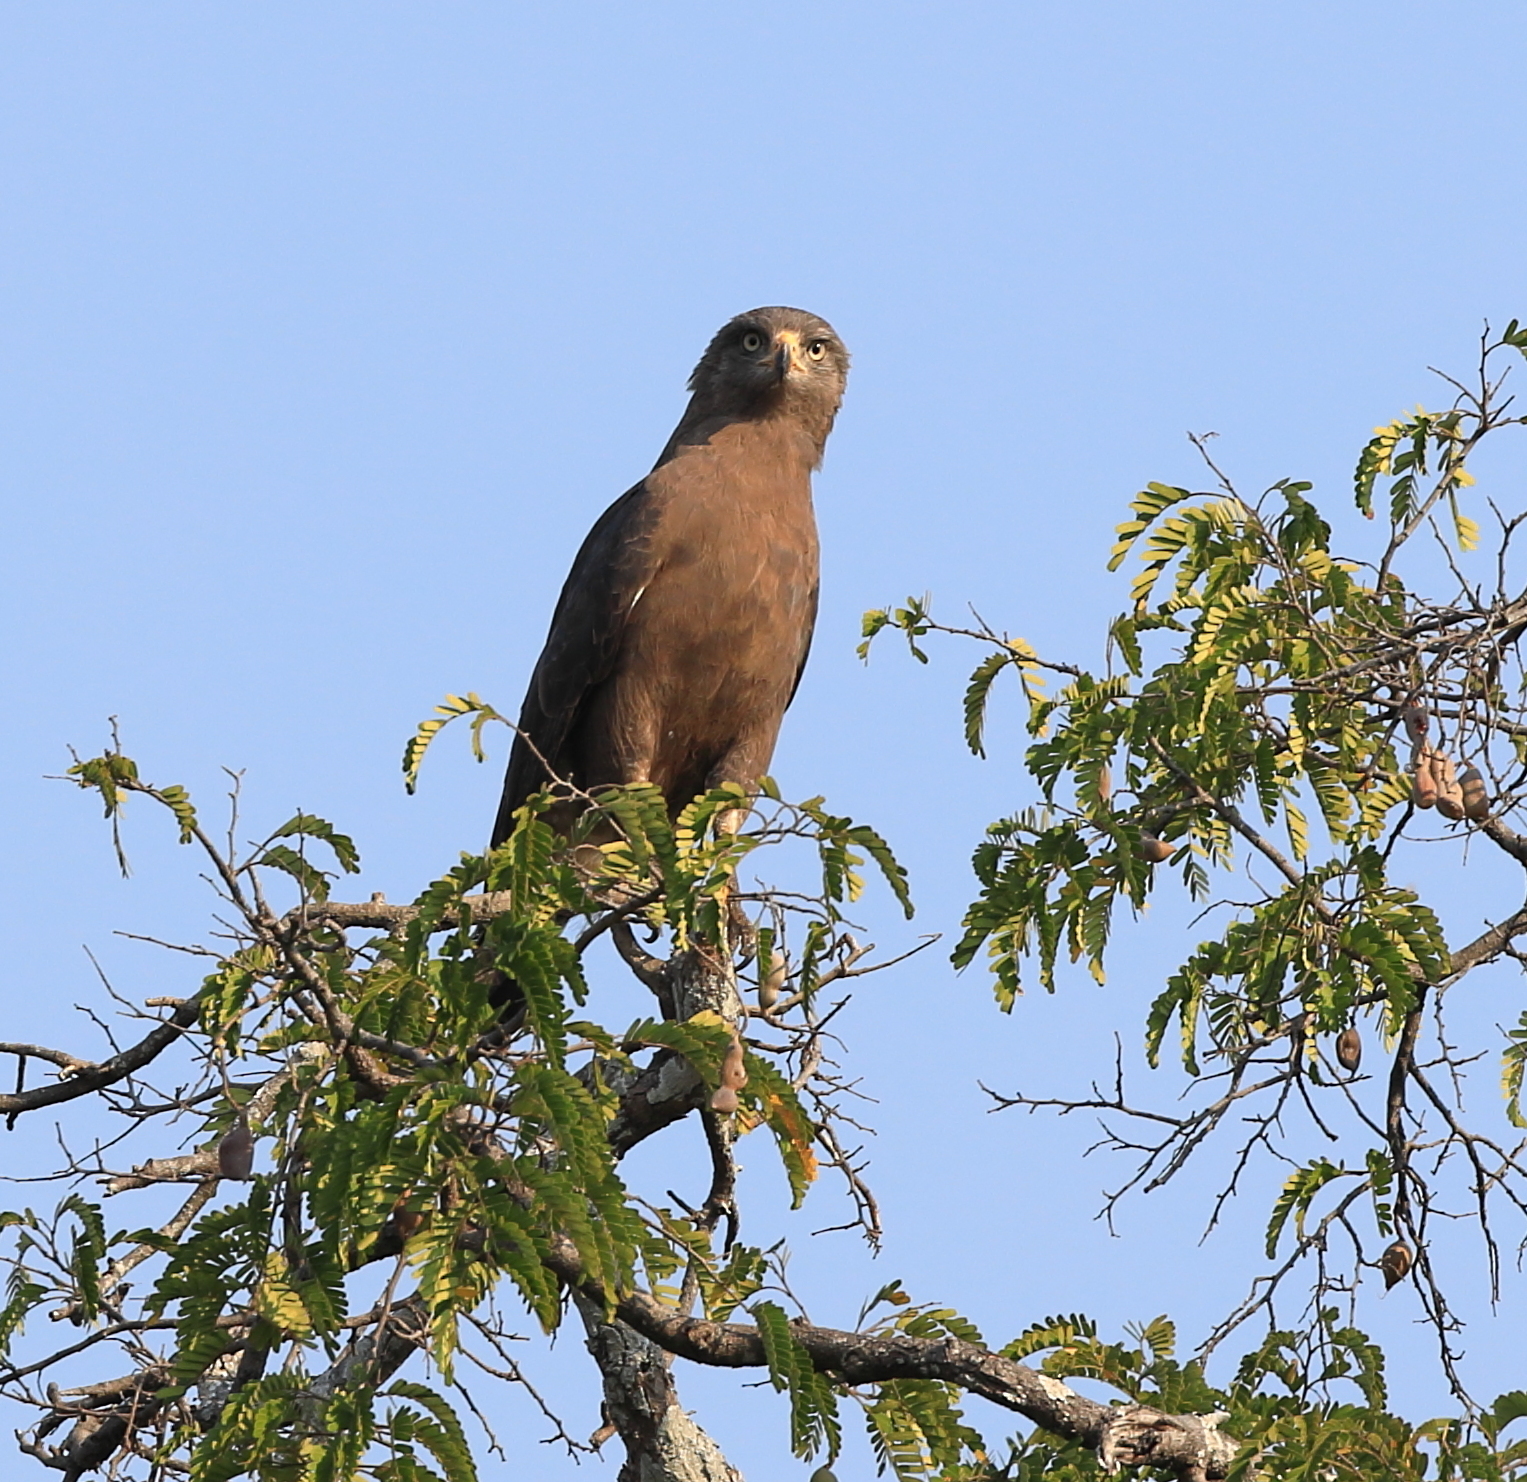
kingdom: Animalia
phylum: Chordata
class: Aves
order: Accipitriformes
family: Accipitridae
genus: Circaetus
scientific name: Circaetus cinerascens
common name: Western banded snake eagle
